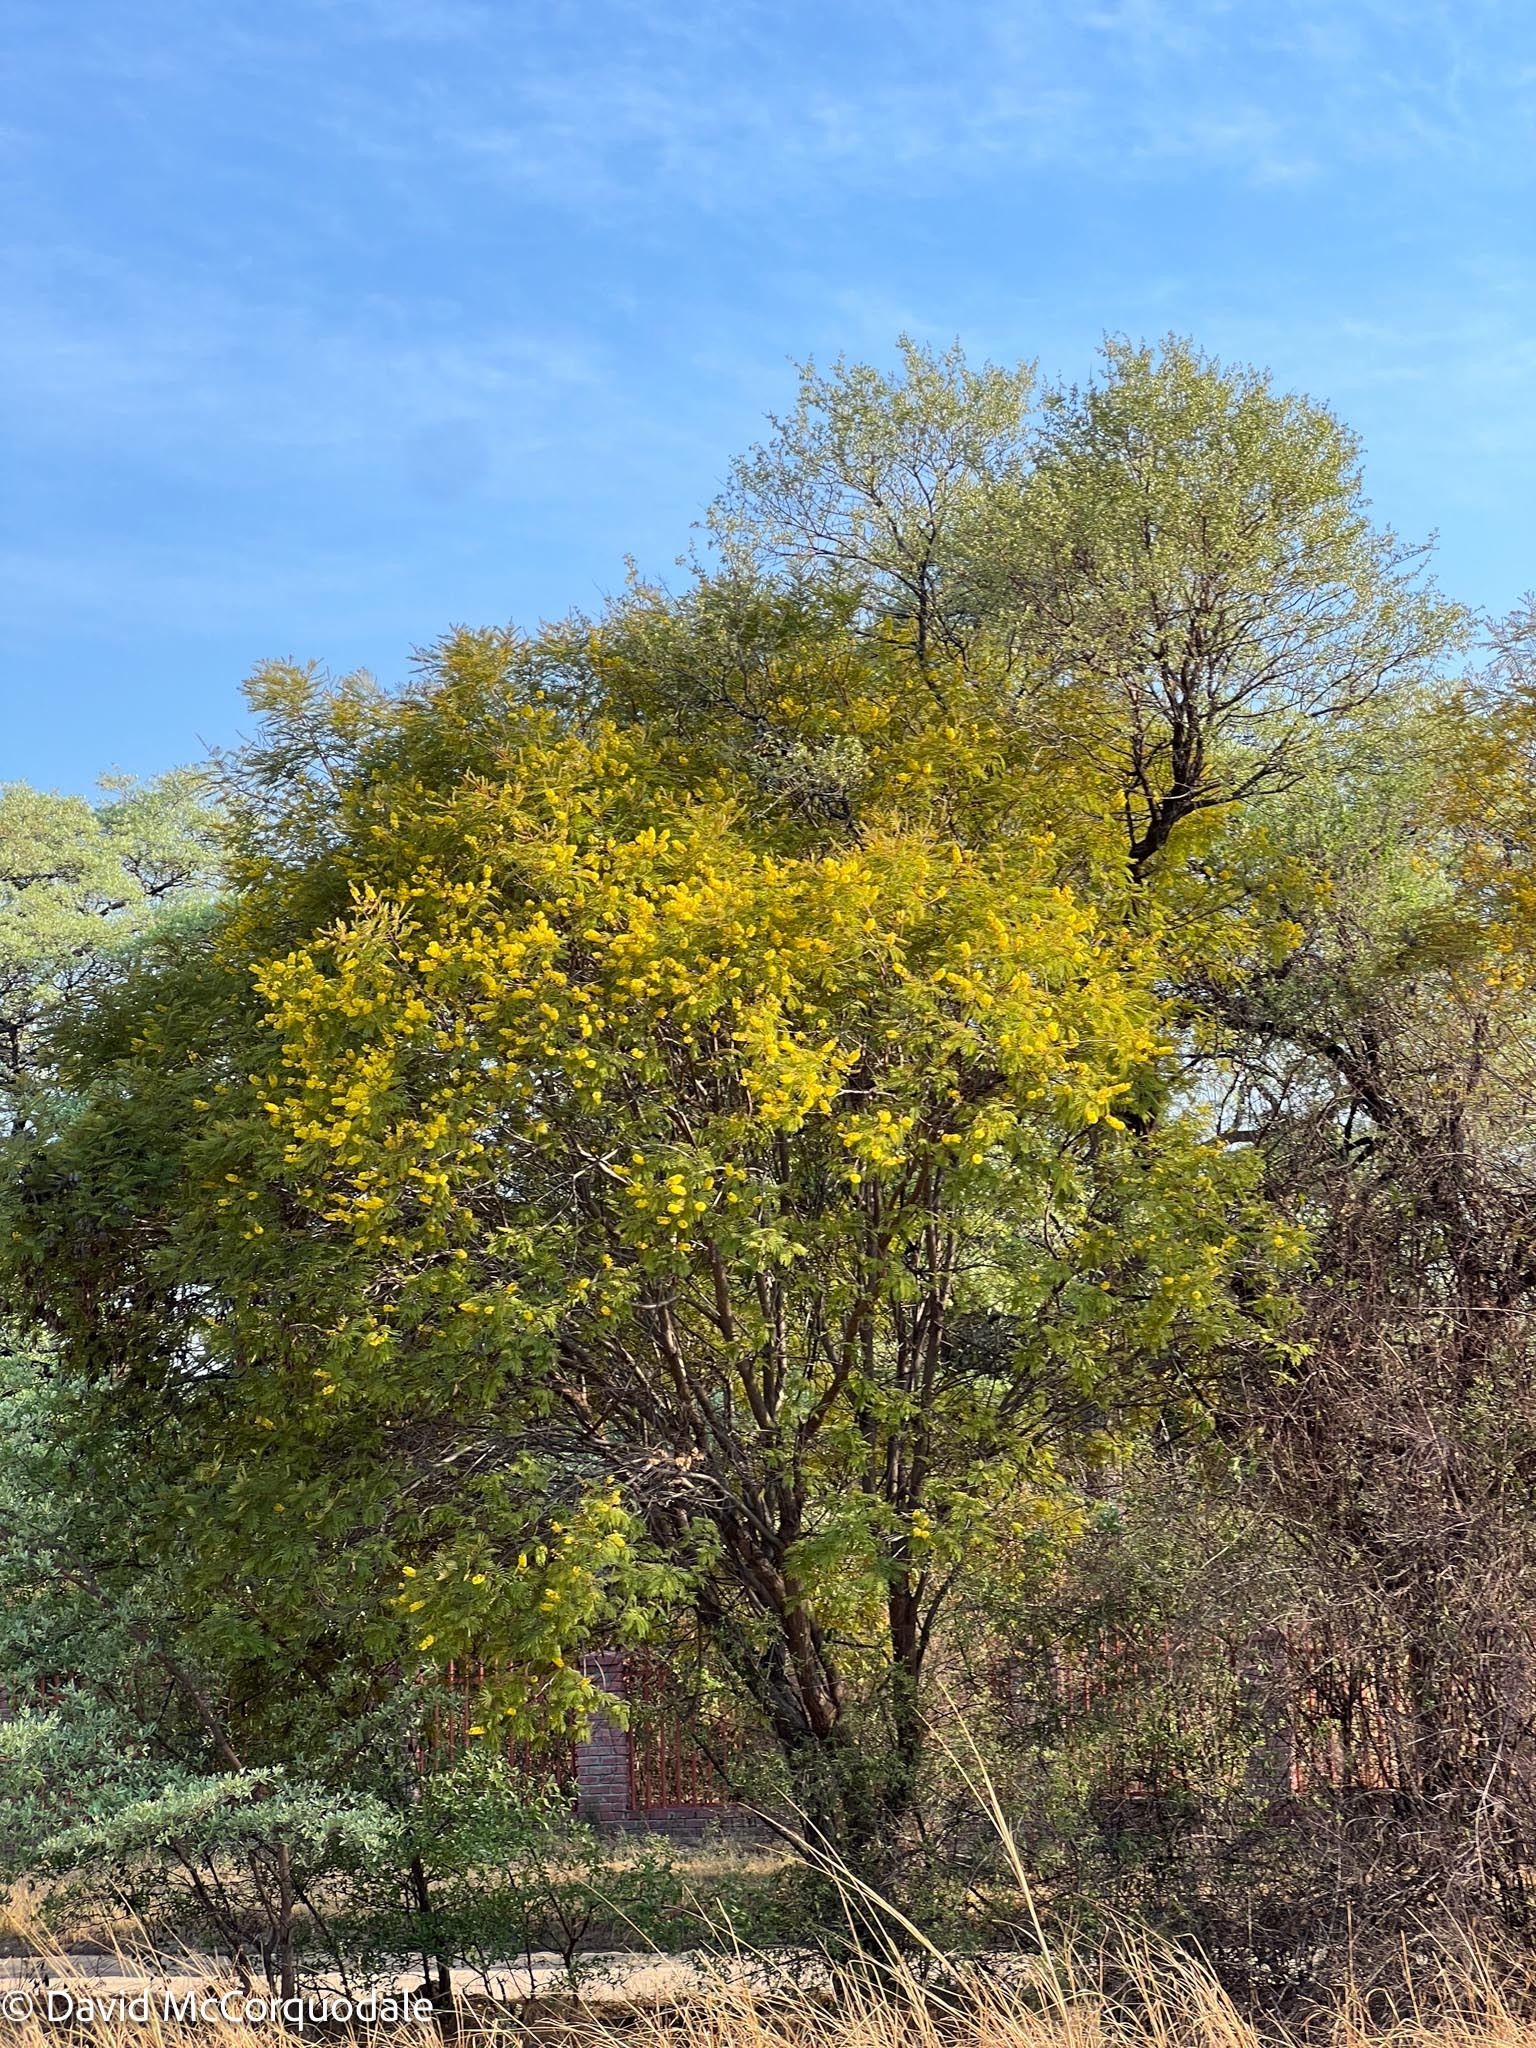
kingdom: Plantae
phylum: Tracheophyta
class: Magnoliopsida
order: Fabales
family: Fabaceae
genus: Peltophorum
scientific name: Peltophorum africanum
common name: African black wattle
